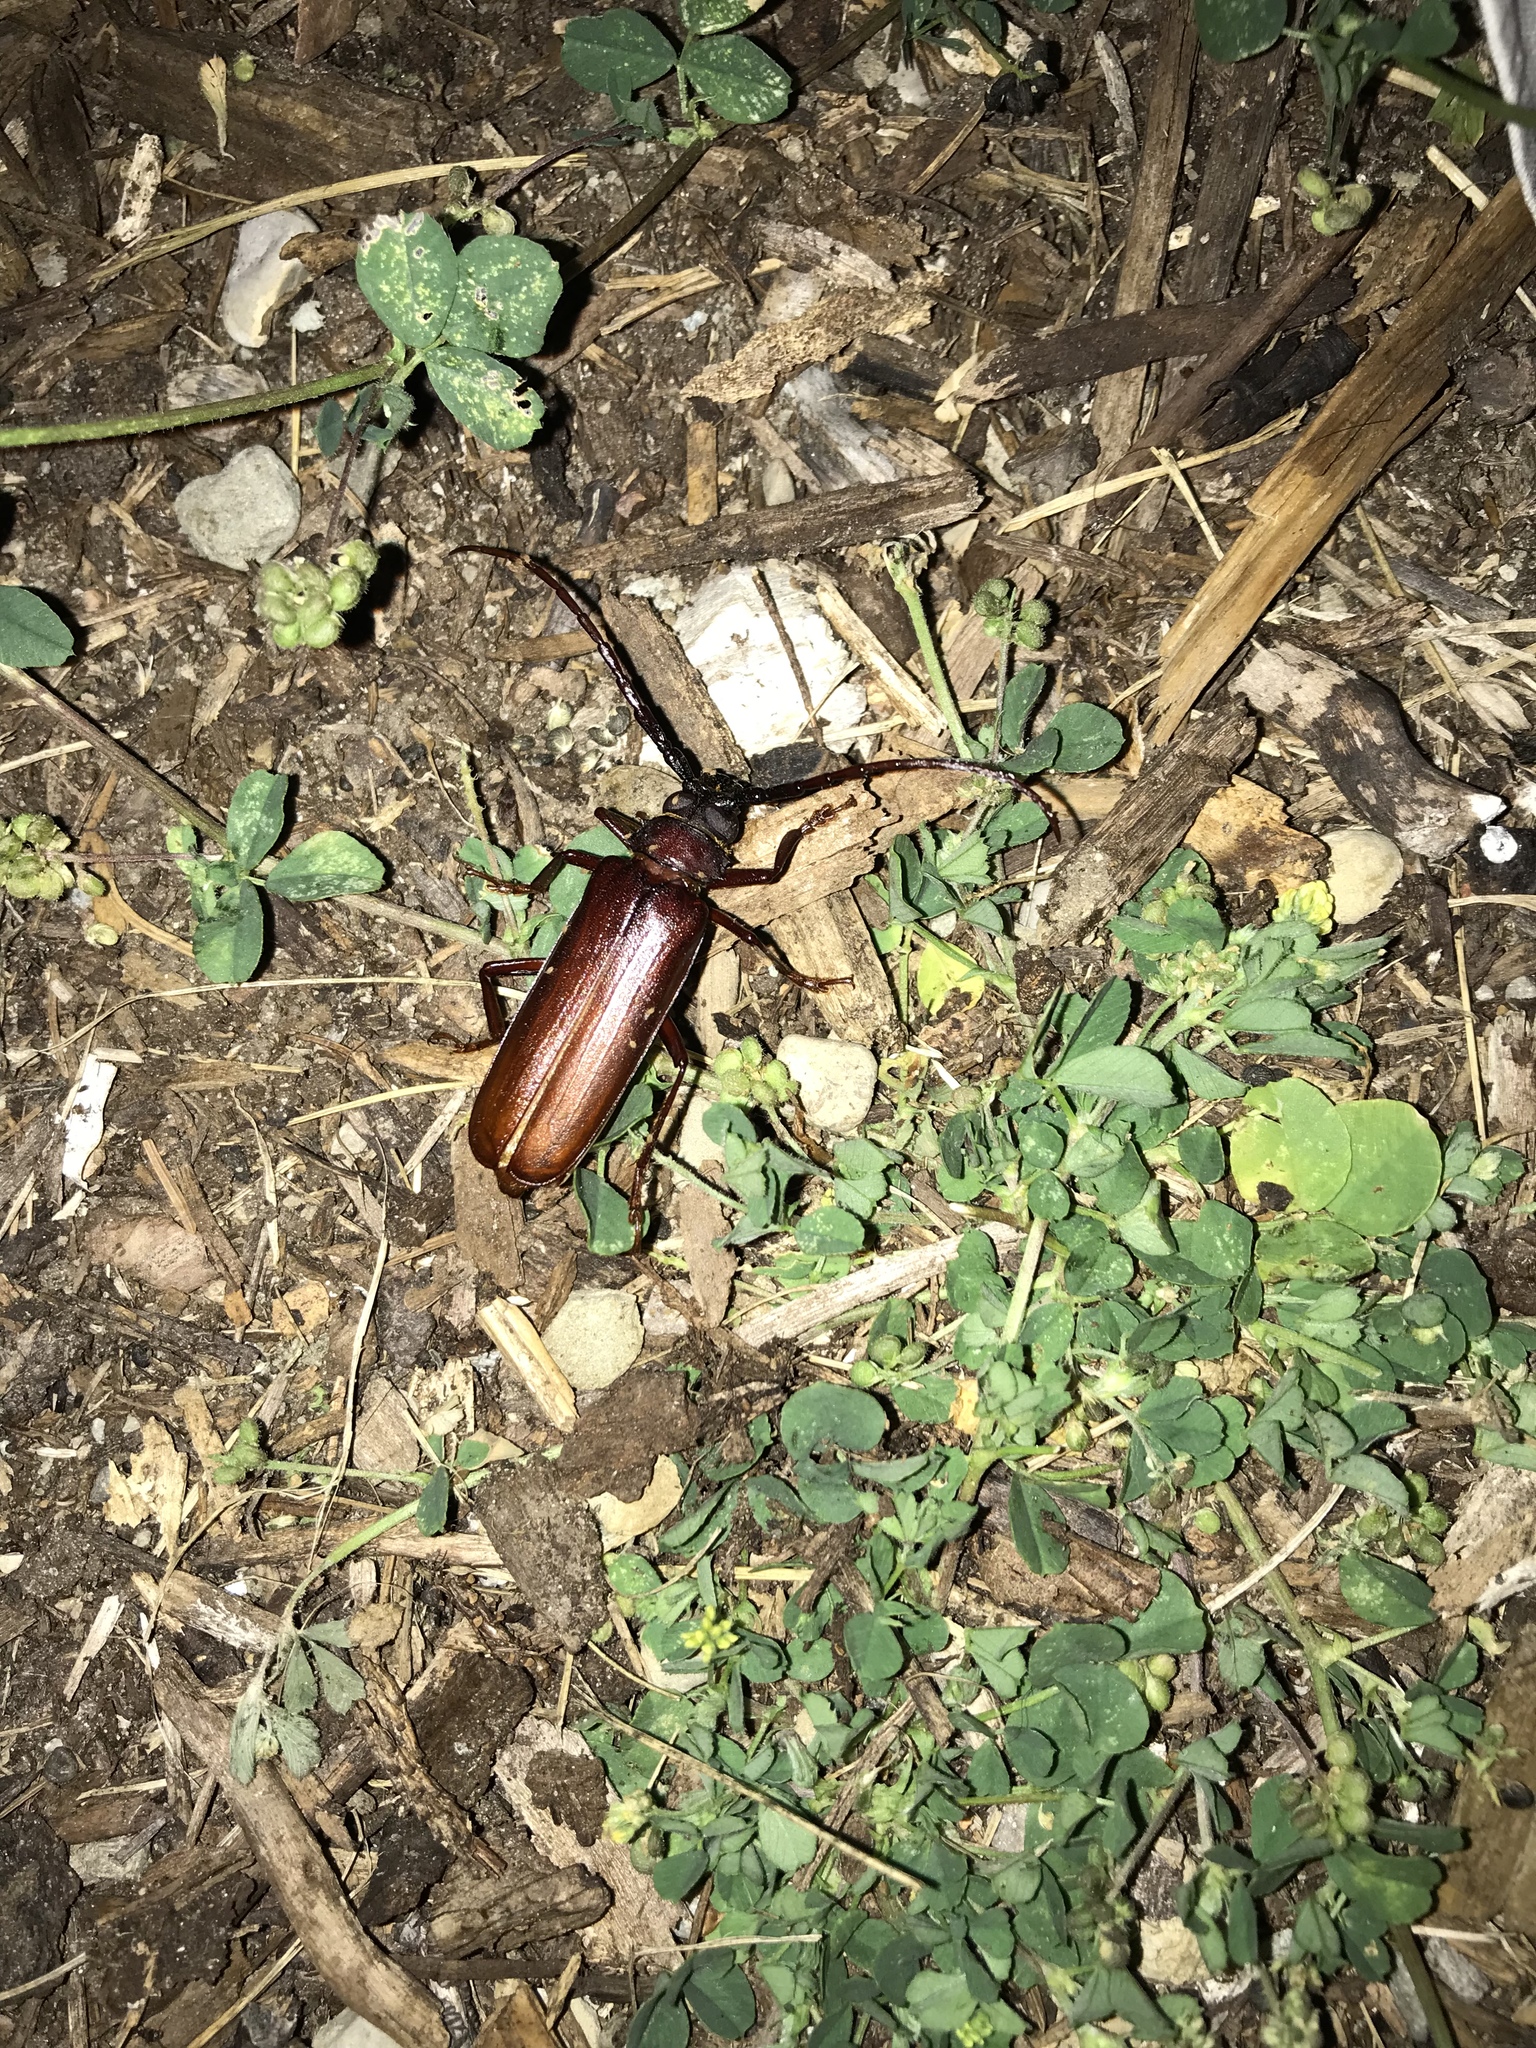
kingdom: Animalia
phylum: Arthropoda
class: Insecta
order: Coleoptera
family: Cerambycidae
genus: Orthosoma
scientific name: Orthosoma brunneum
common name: Brown prionid beetle
